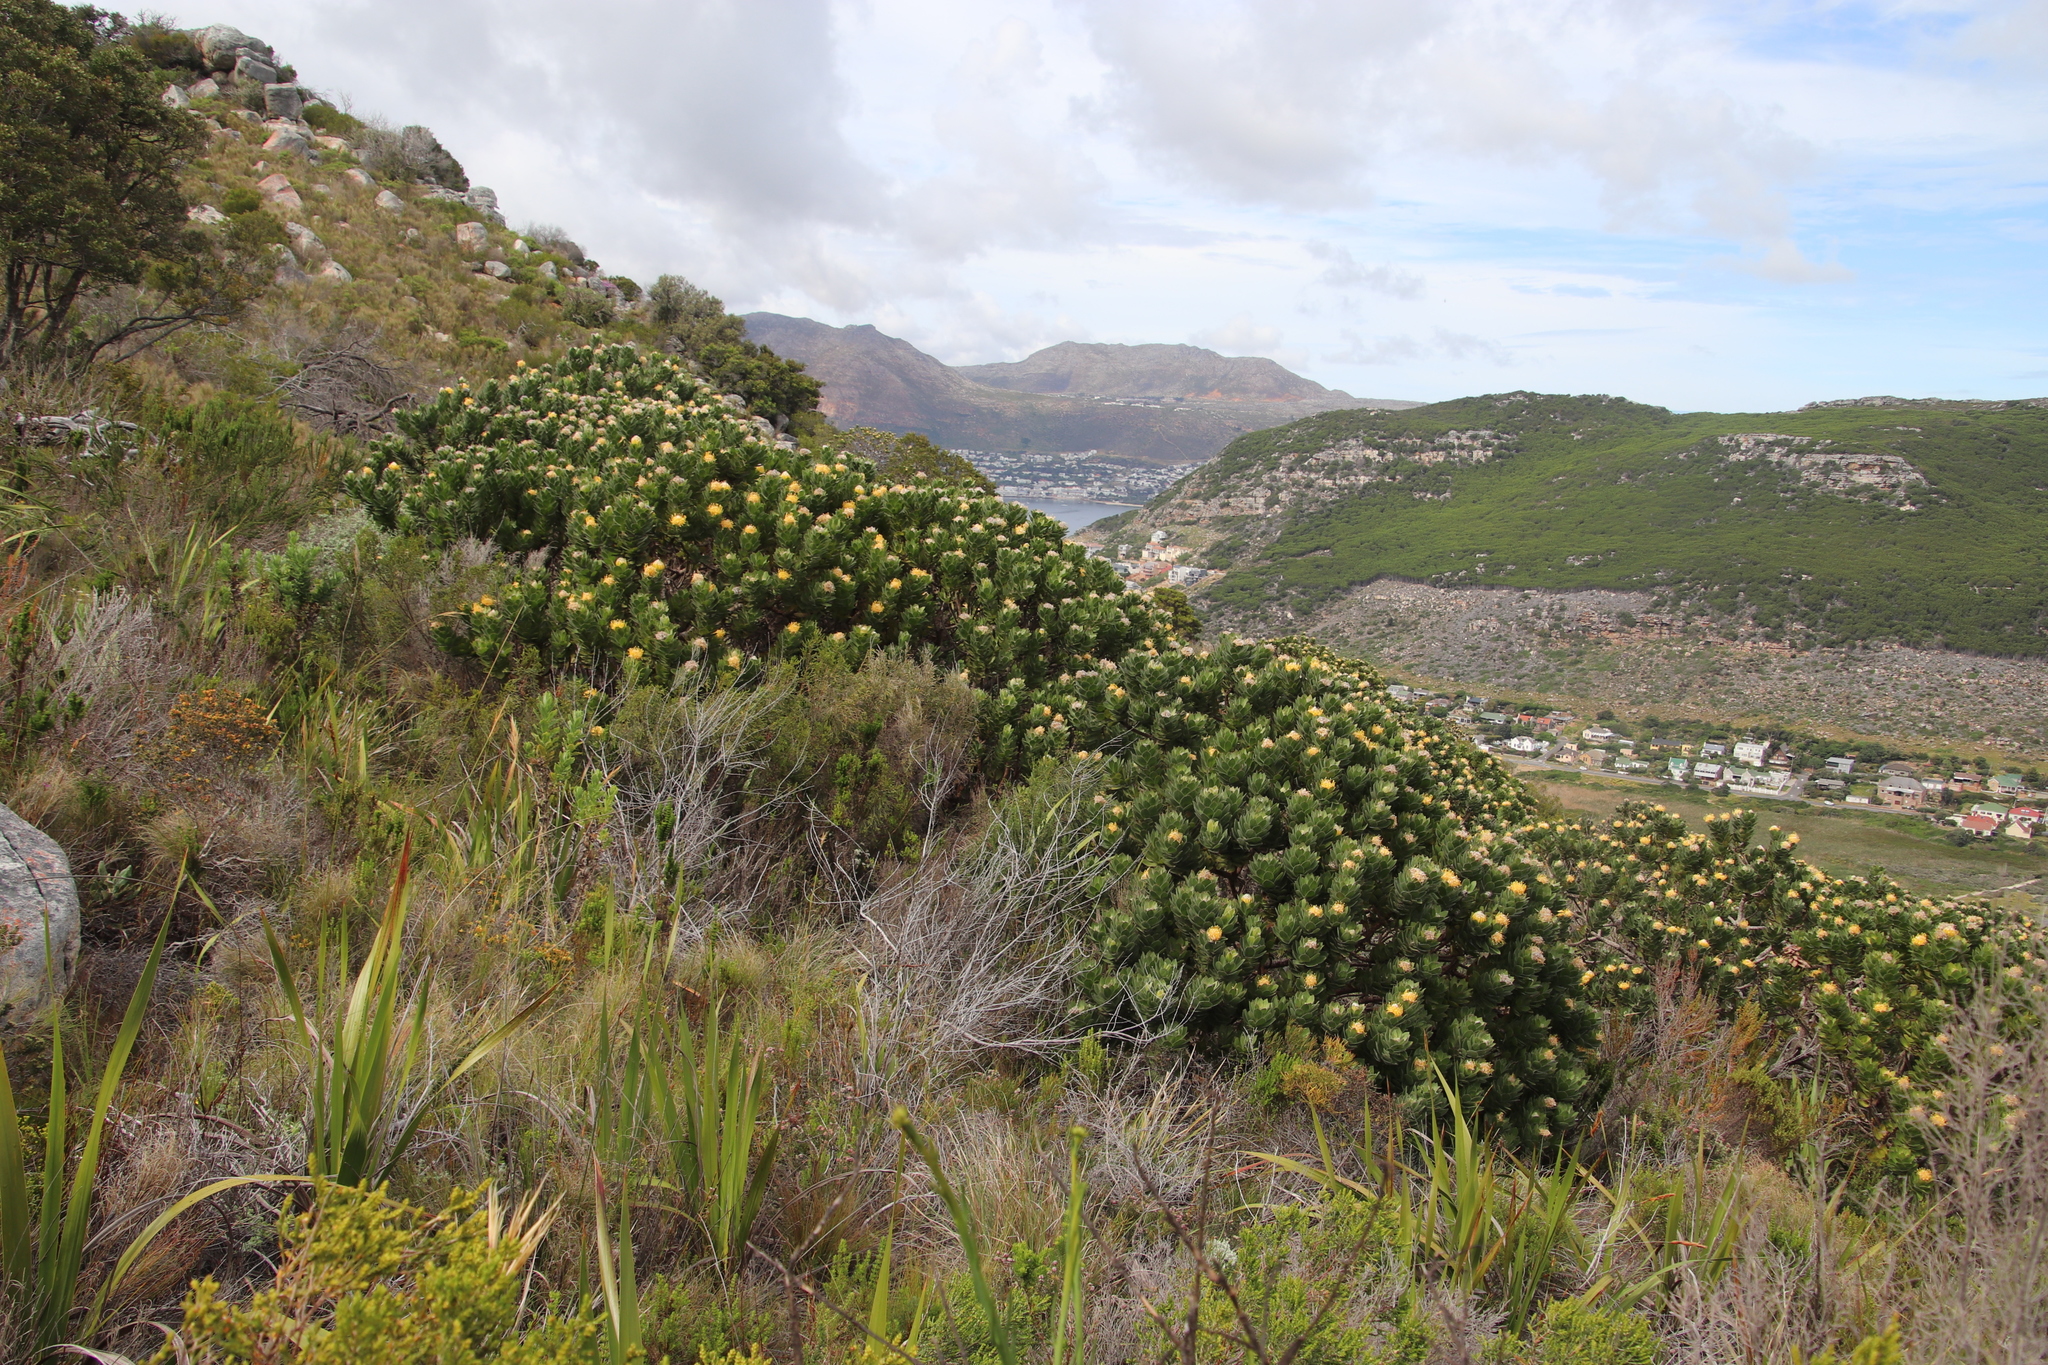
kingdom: Plantae
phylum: Tracheophyta
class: Magnoliopsida
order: Proteales
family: Proteaceae
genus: Leucospermum
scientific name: Leucospermum conocarpodendron
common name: Tree pincushion
